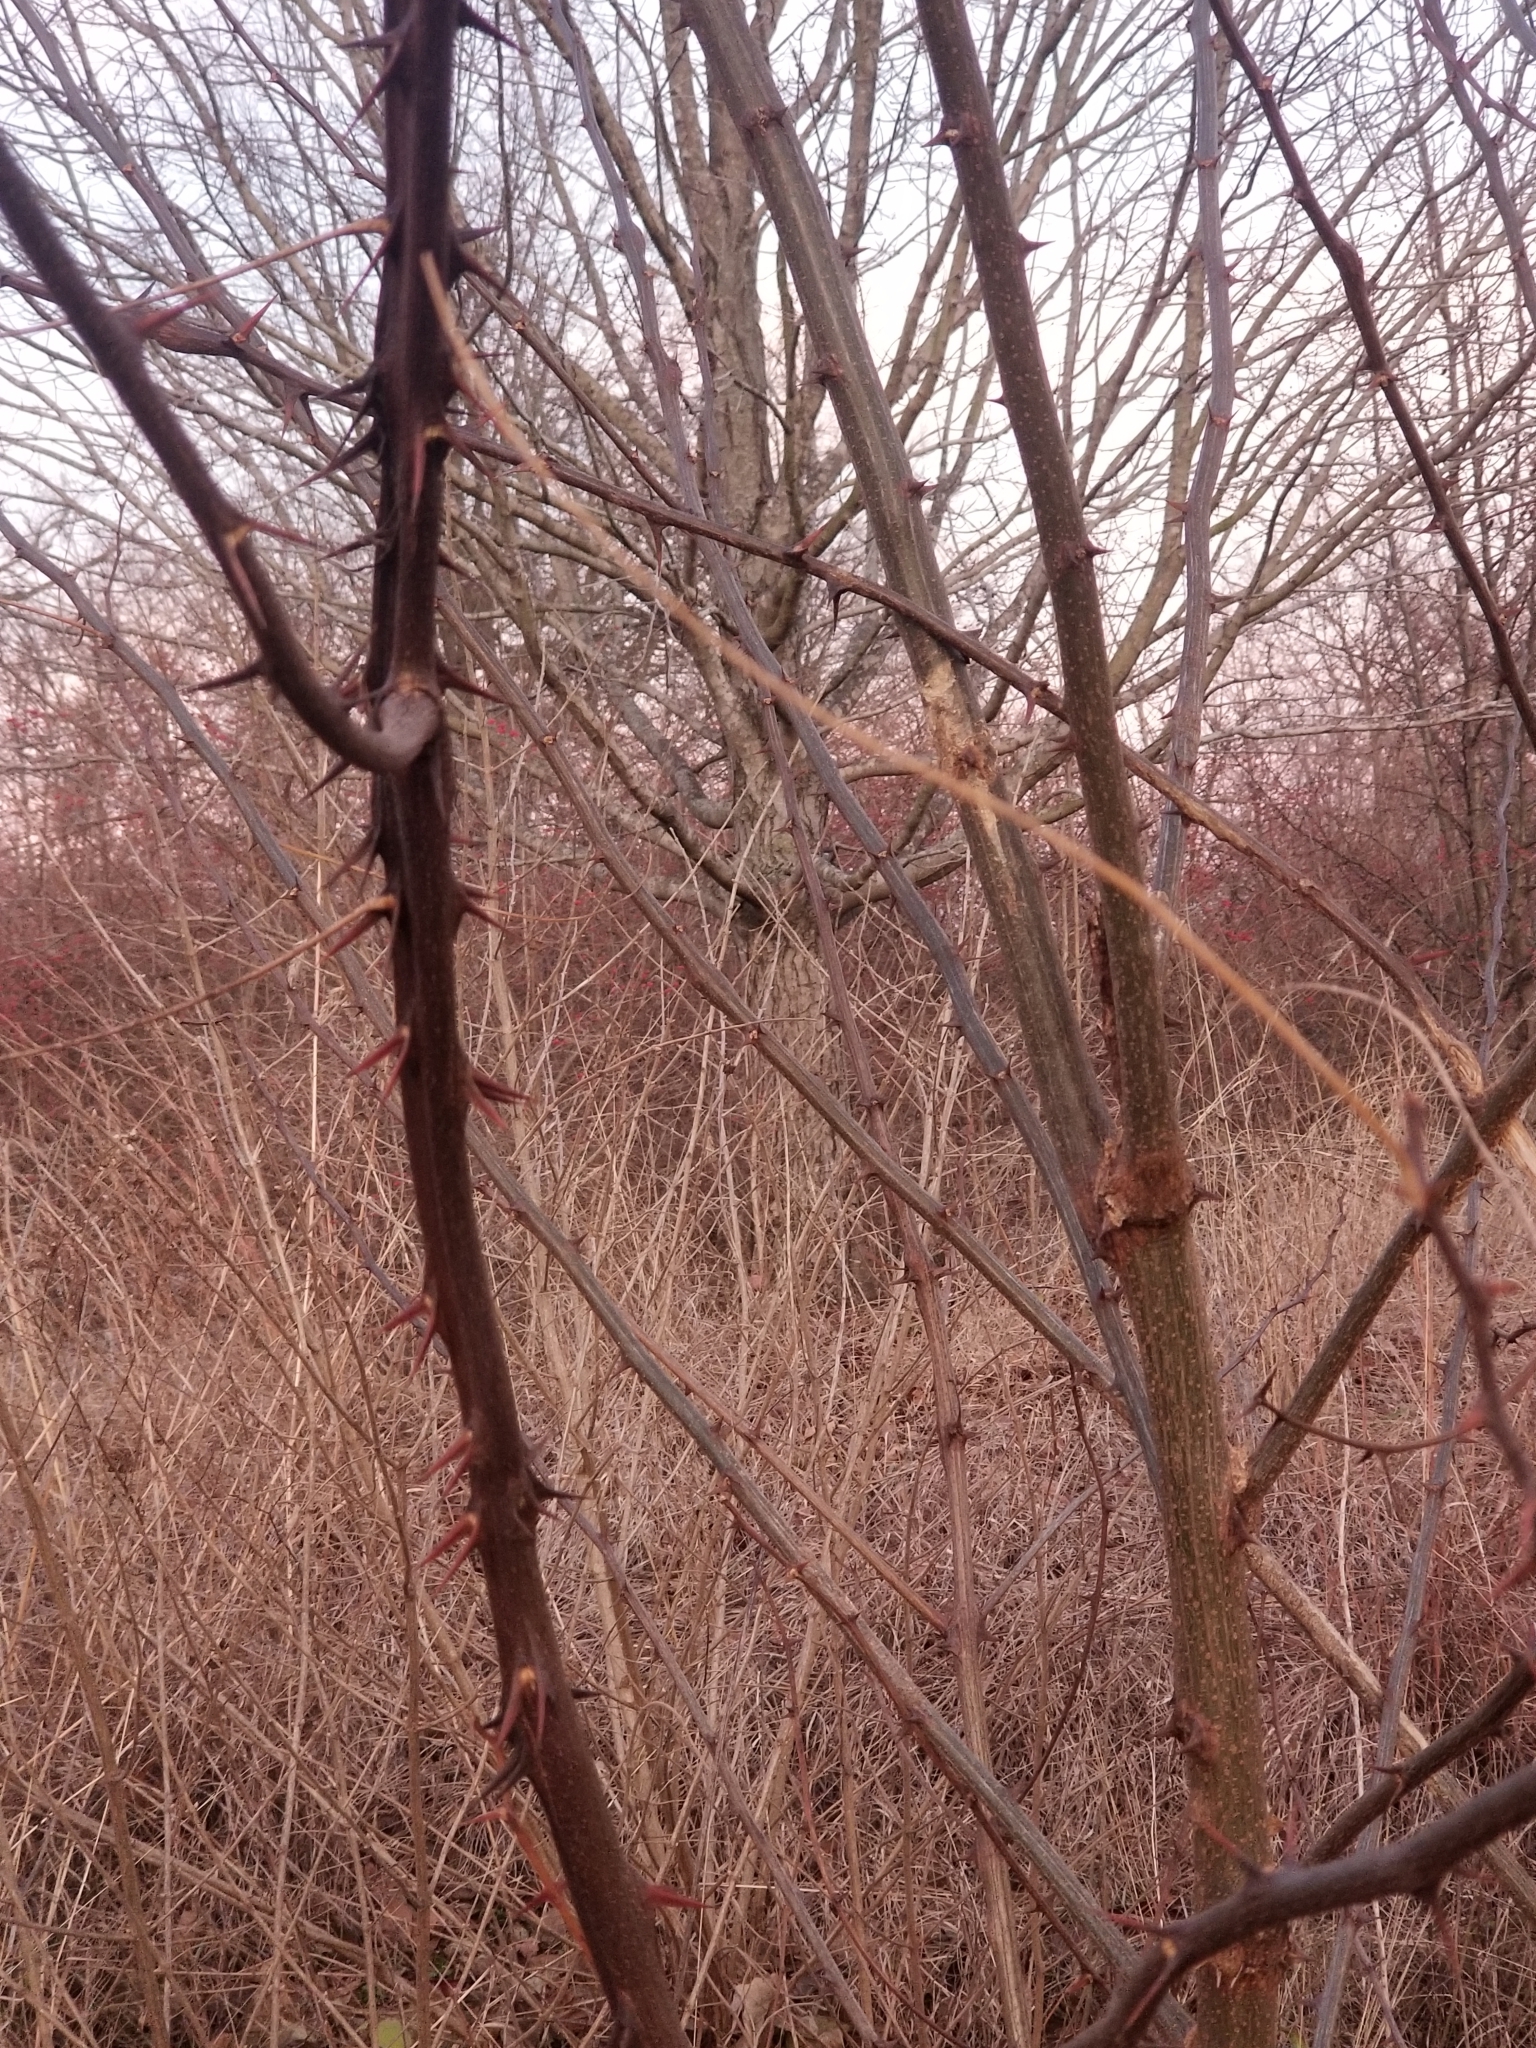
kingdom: Plantae
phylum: Tracheophyta
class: Magnoliopsida
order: Fabales
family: Fabaceae
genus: Robinia
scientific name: Robinia pseudoacacia
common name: Black locust
